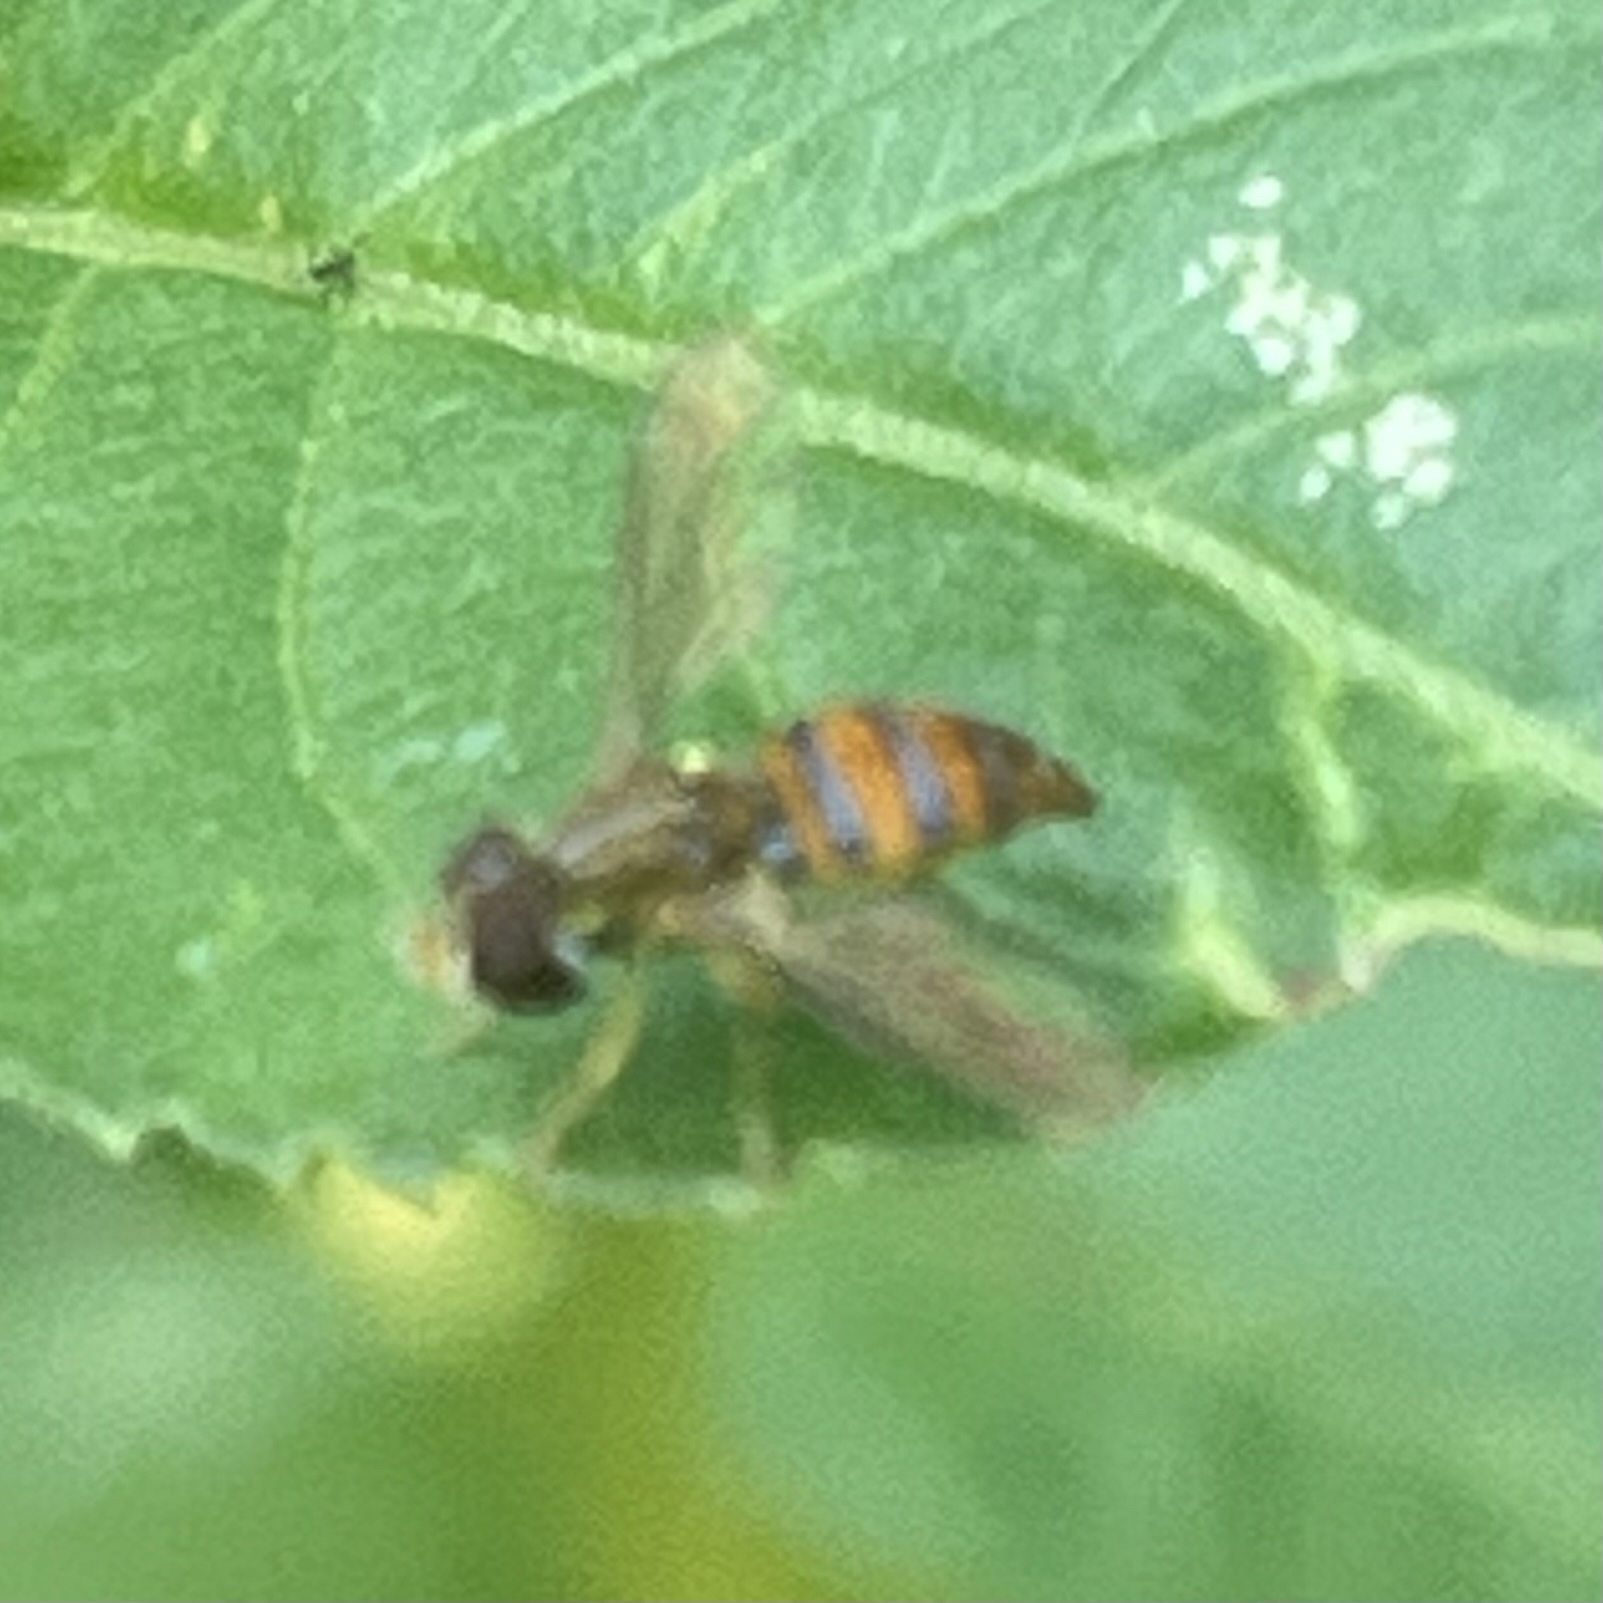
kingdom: Animalia
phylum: Arthropoda
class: Insecta
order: Diptera
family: Syrphidae
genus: Toxomerus
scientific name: Toxomerus corbis
